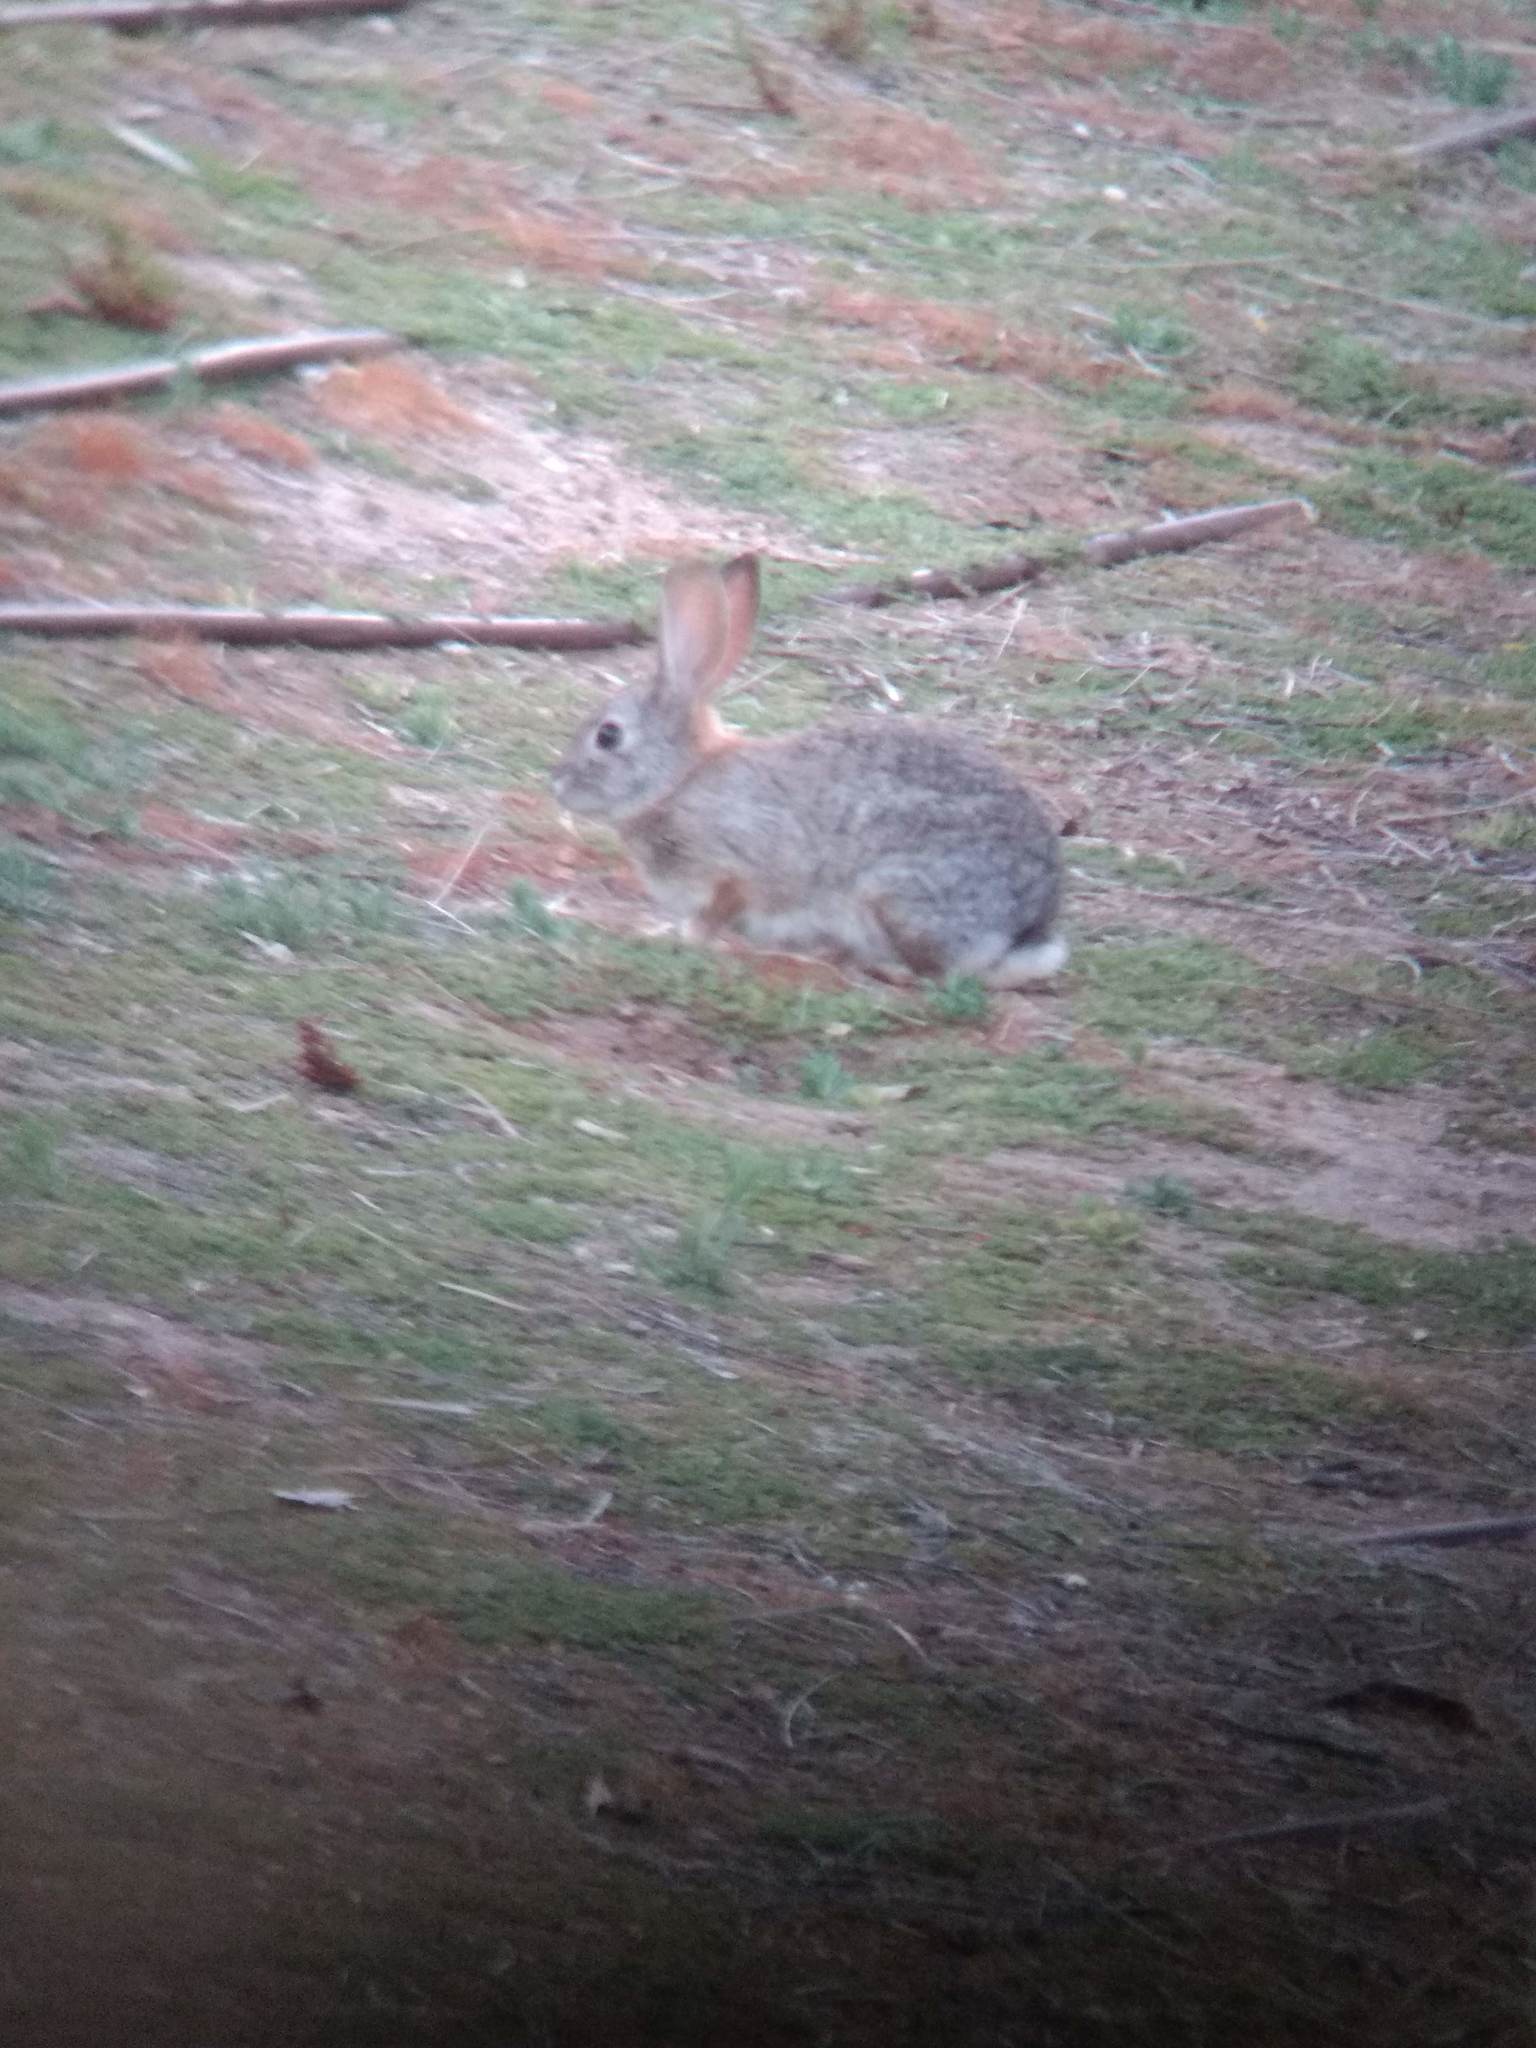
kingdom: Animalia
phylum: Chordata
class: Mammalia
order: Lagomorpha
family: Leporidae
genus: Sylvilagus
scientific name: Sylvilagus audubonii
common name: Desert cottontail
